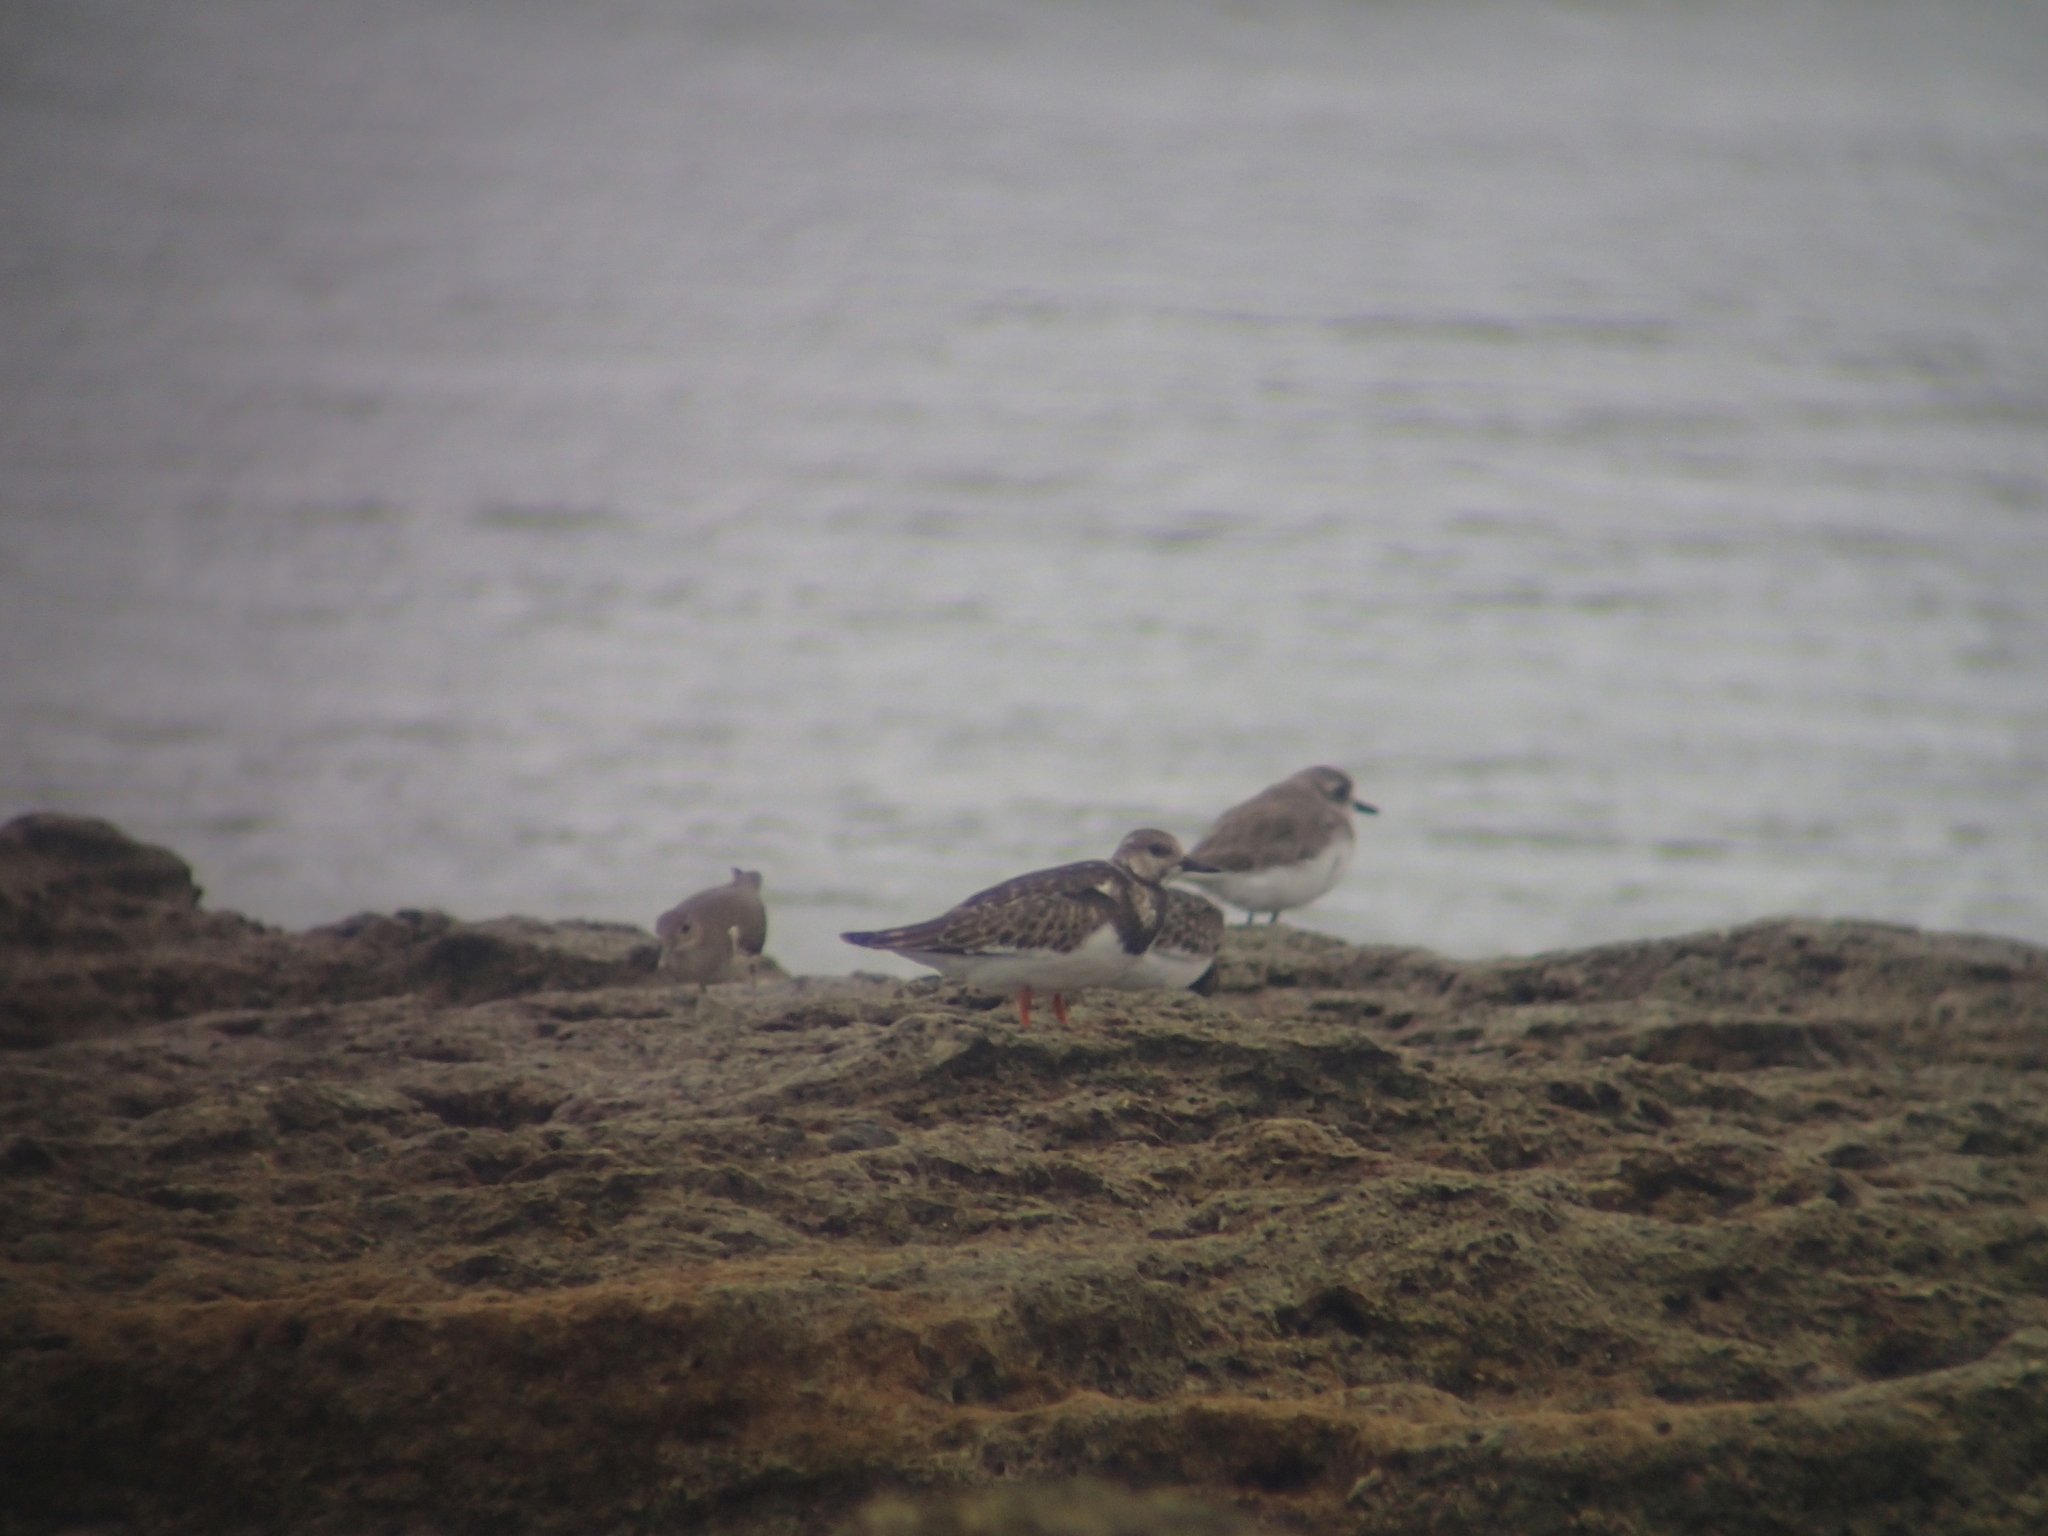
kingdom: Animalia
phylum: Chordata
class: Aves
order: Charadriiformes
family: Scolopacidae
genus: Actitis
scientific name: Actitis hypoleucos
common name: Common sandpiper
